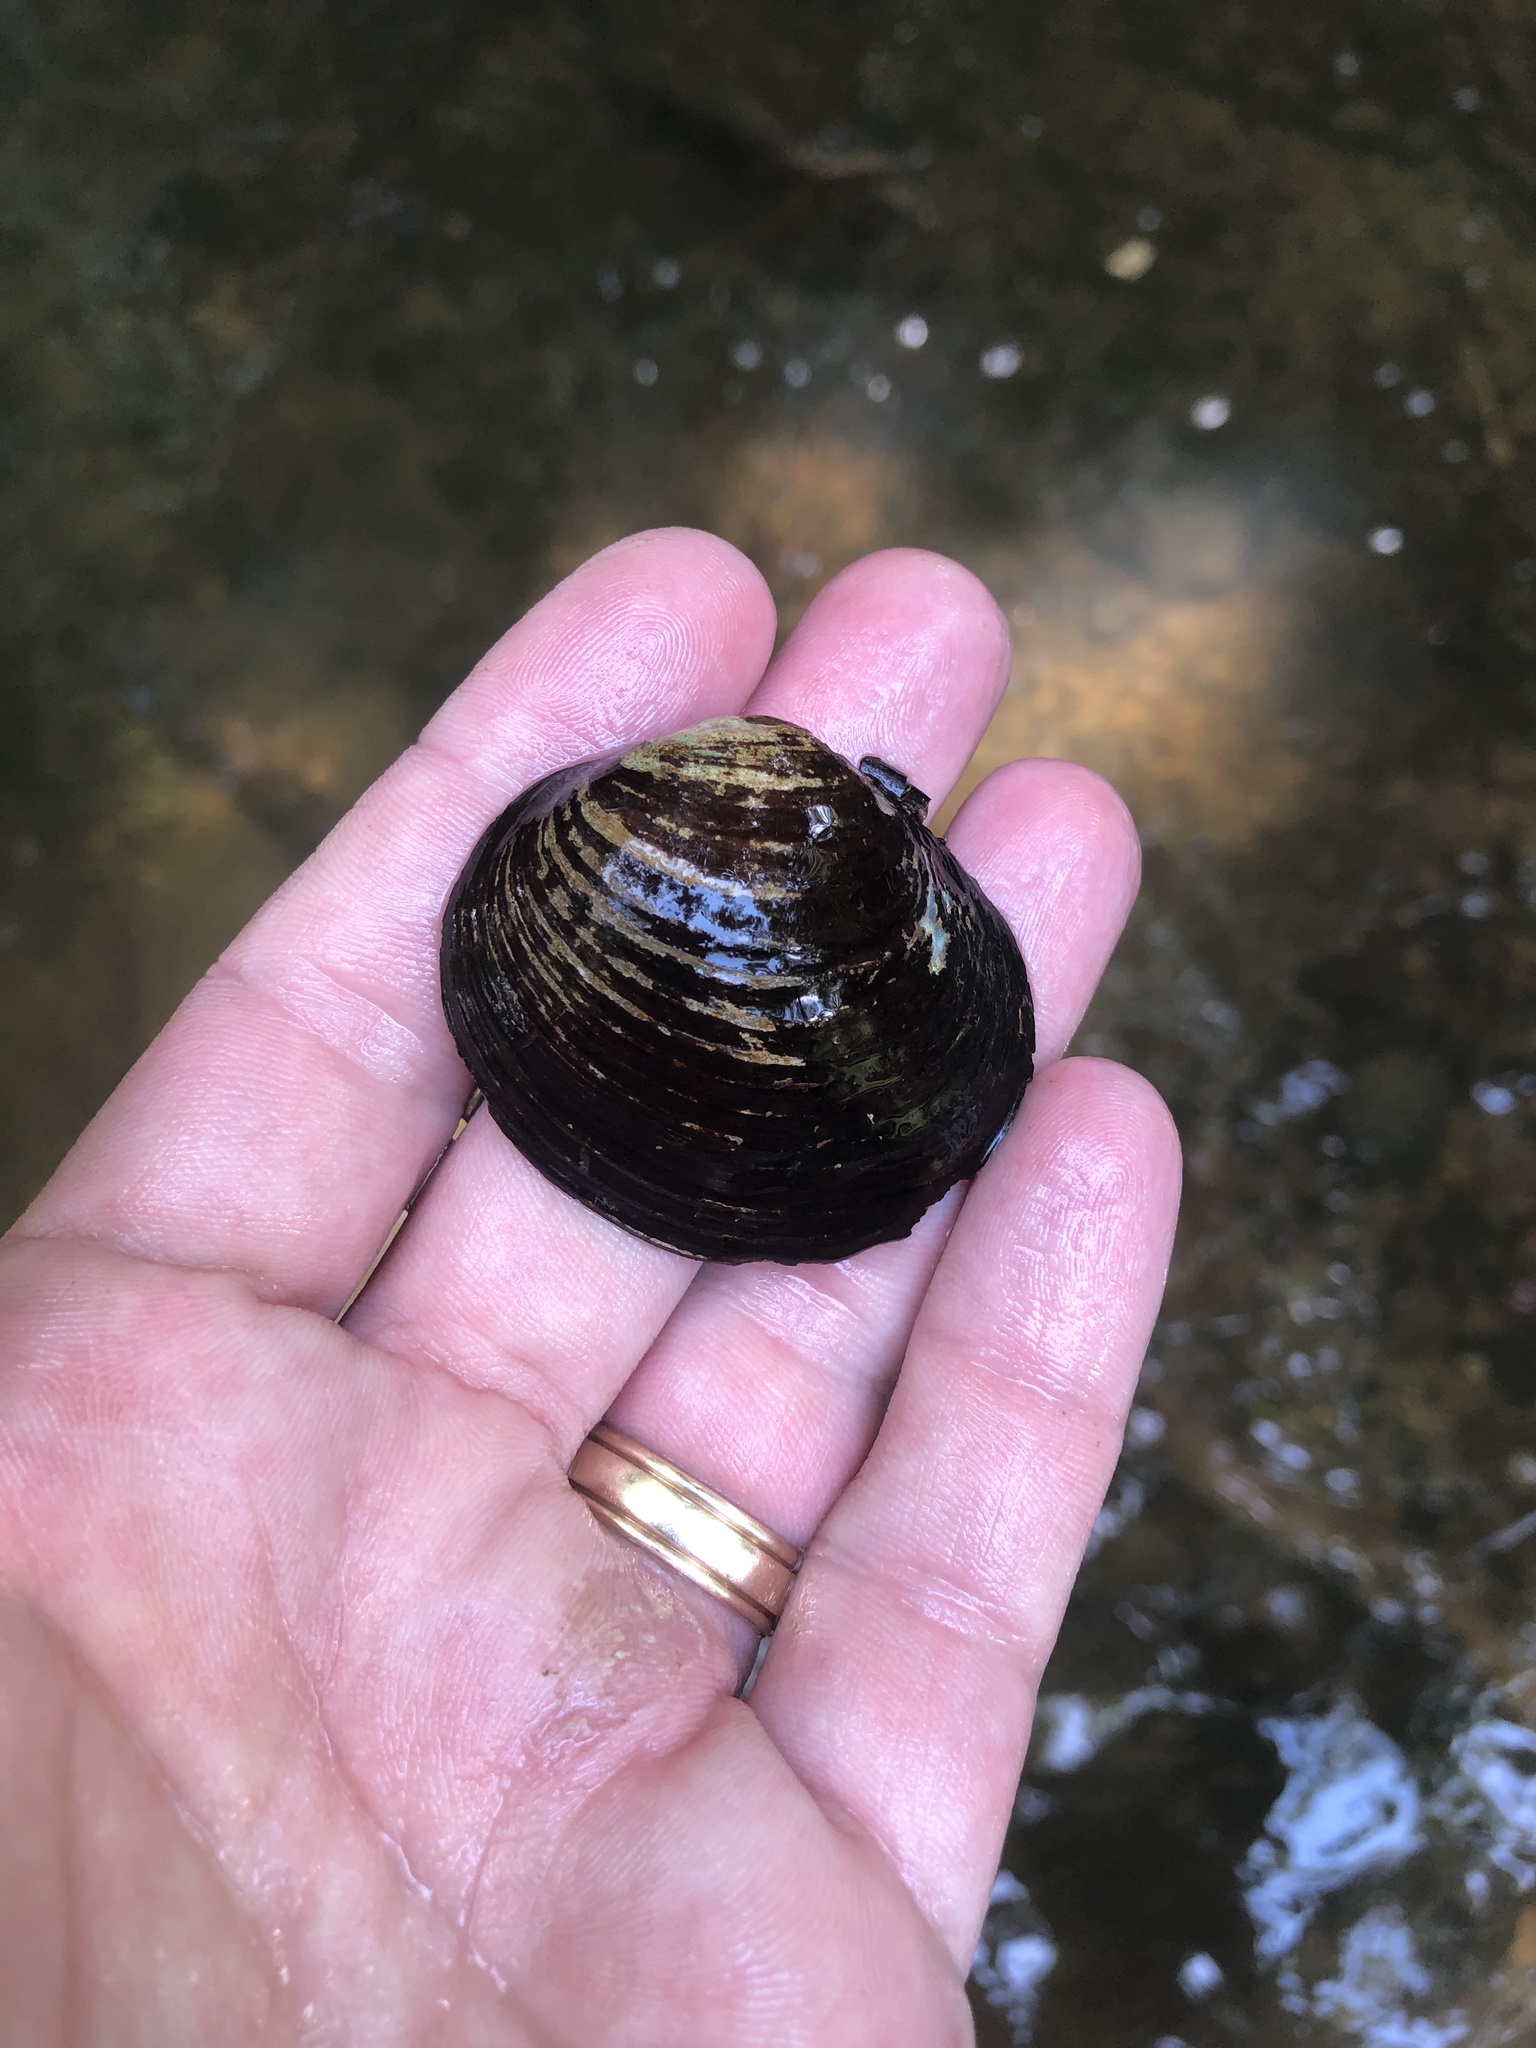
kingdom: Animalia
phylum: Mollusca
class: Bivalvia
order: Unionida
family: Unionidae
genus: Obovaria
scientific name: Obovaria subrotunda
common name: Round hickorynut
